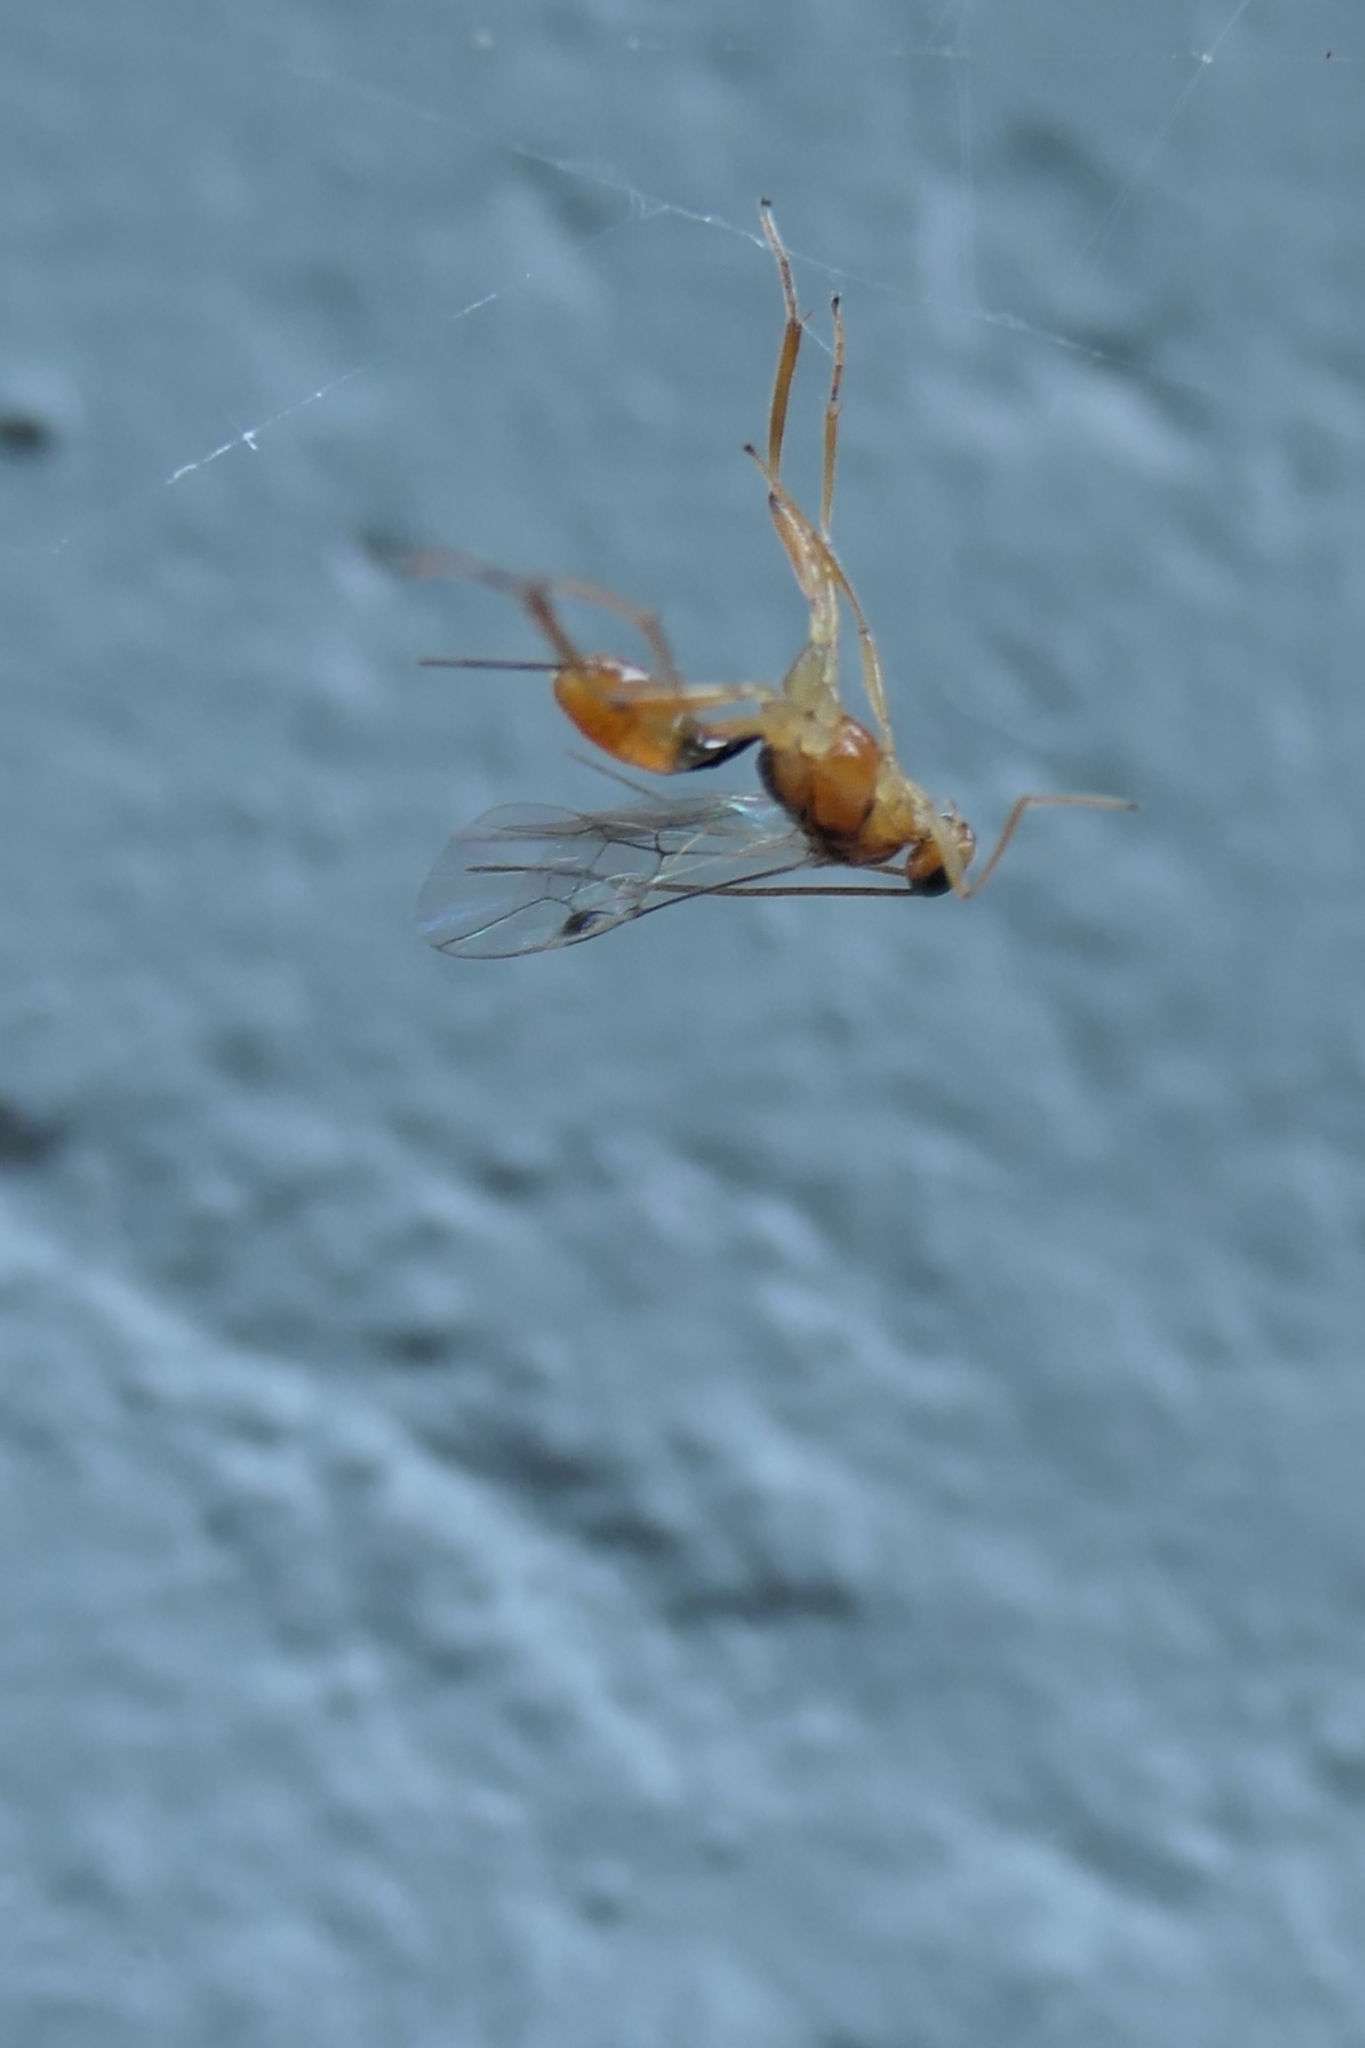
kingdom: Animalia
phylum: Arthropoda
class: Insecta
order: Hymenoptera
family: Braconidae
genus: Meteorus
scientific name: Meteorus pulchricornis
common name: Braconid wasp
